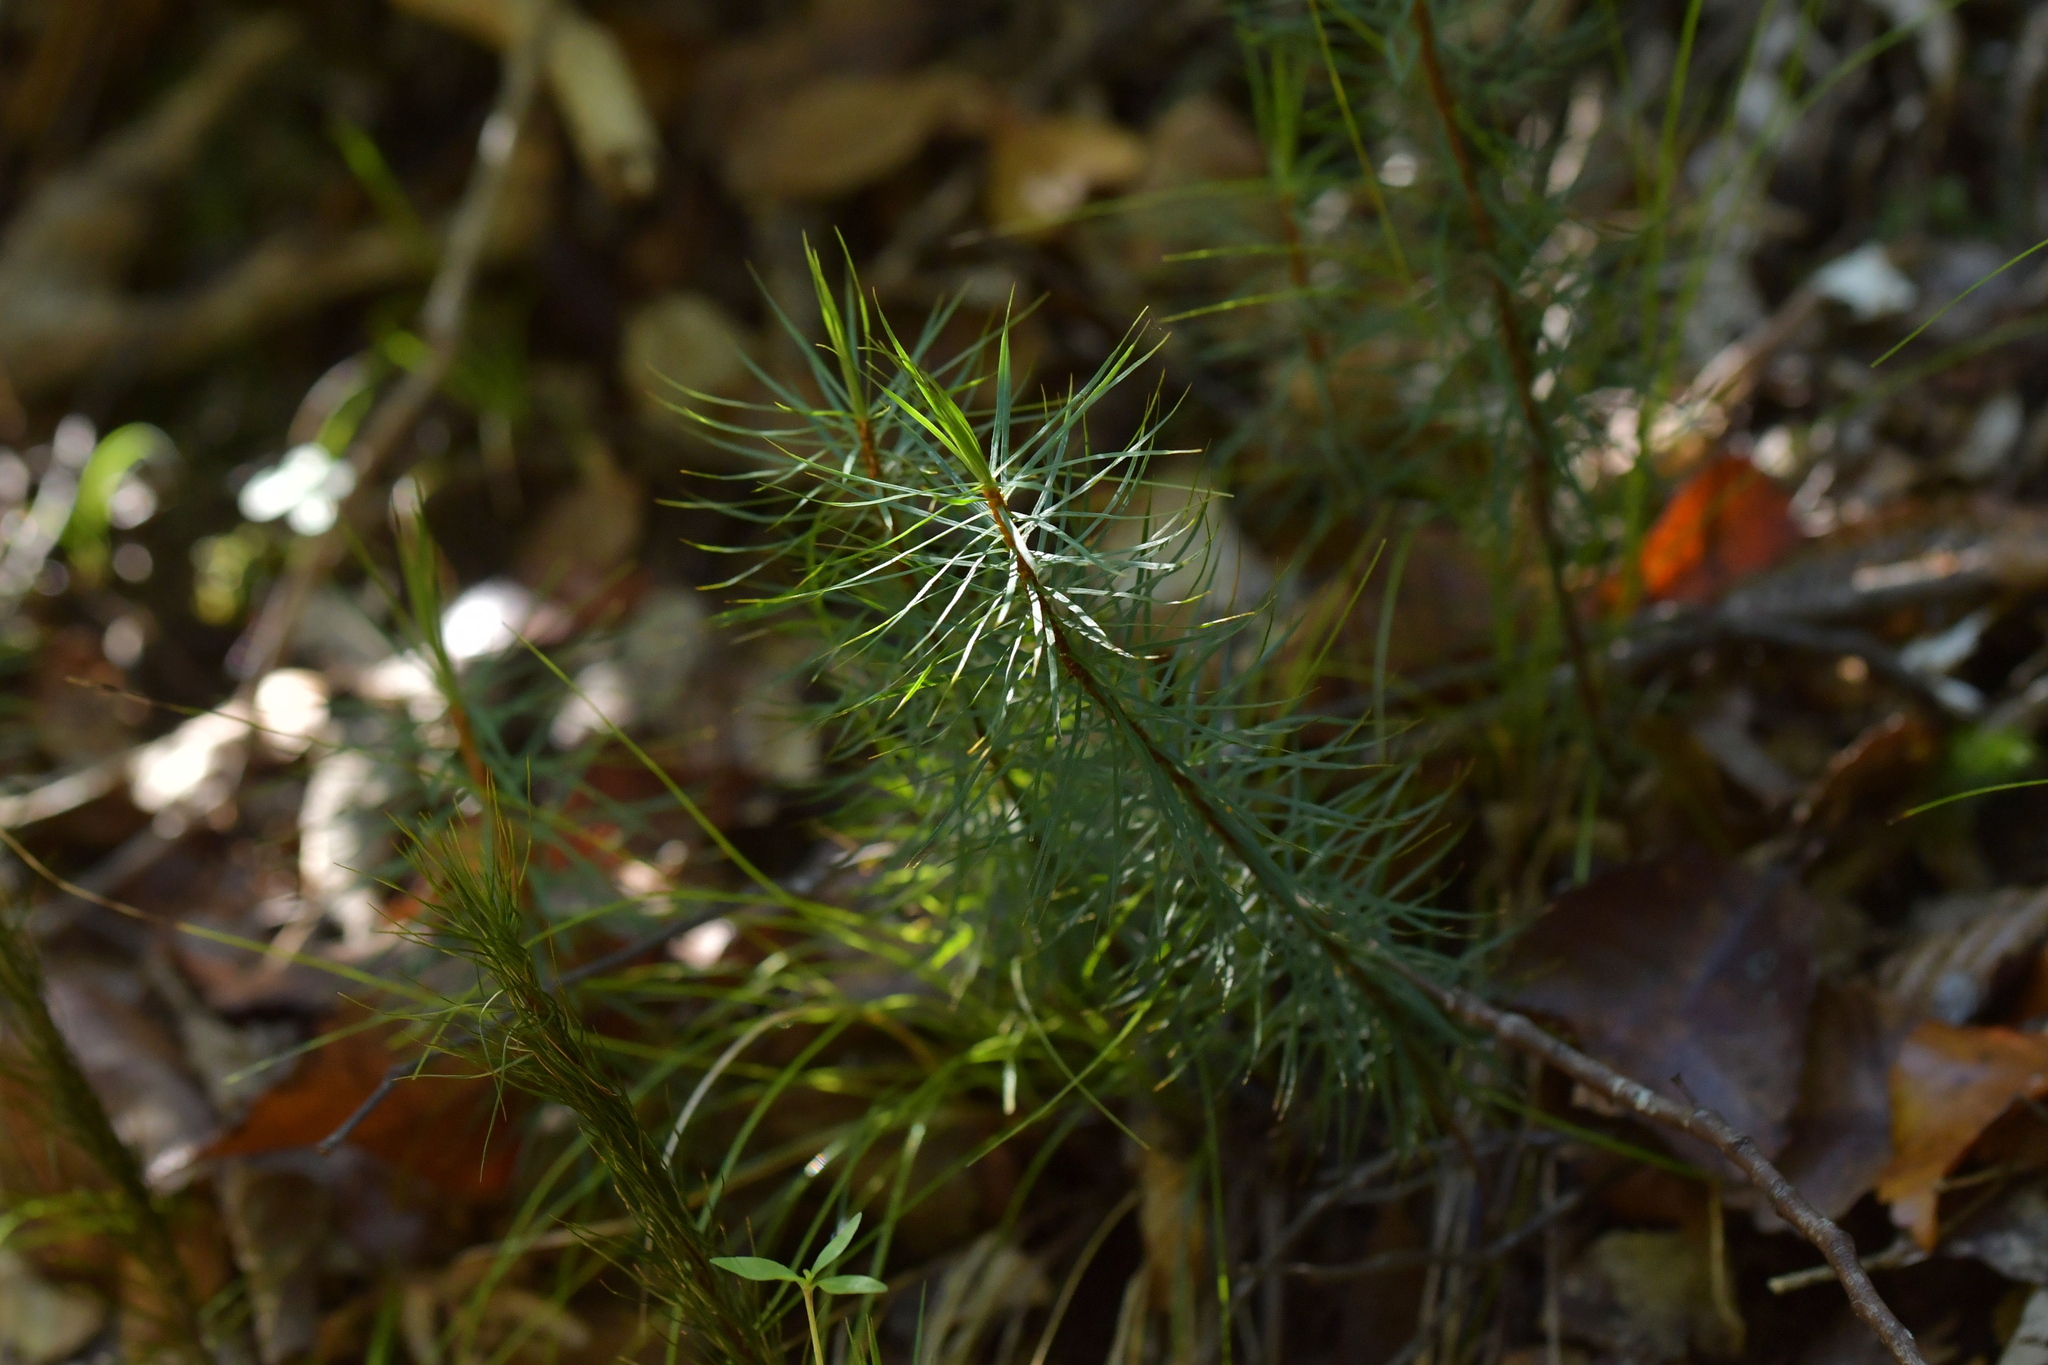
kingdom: Plantae
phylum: Bryophyta
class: Polytrichopsida
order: Polytrichales
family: Polytrichaceae
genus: Dawsonia
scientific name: Dawsonia superba
